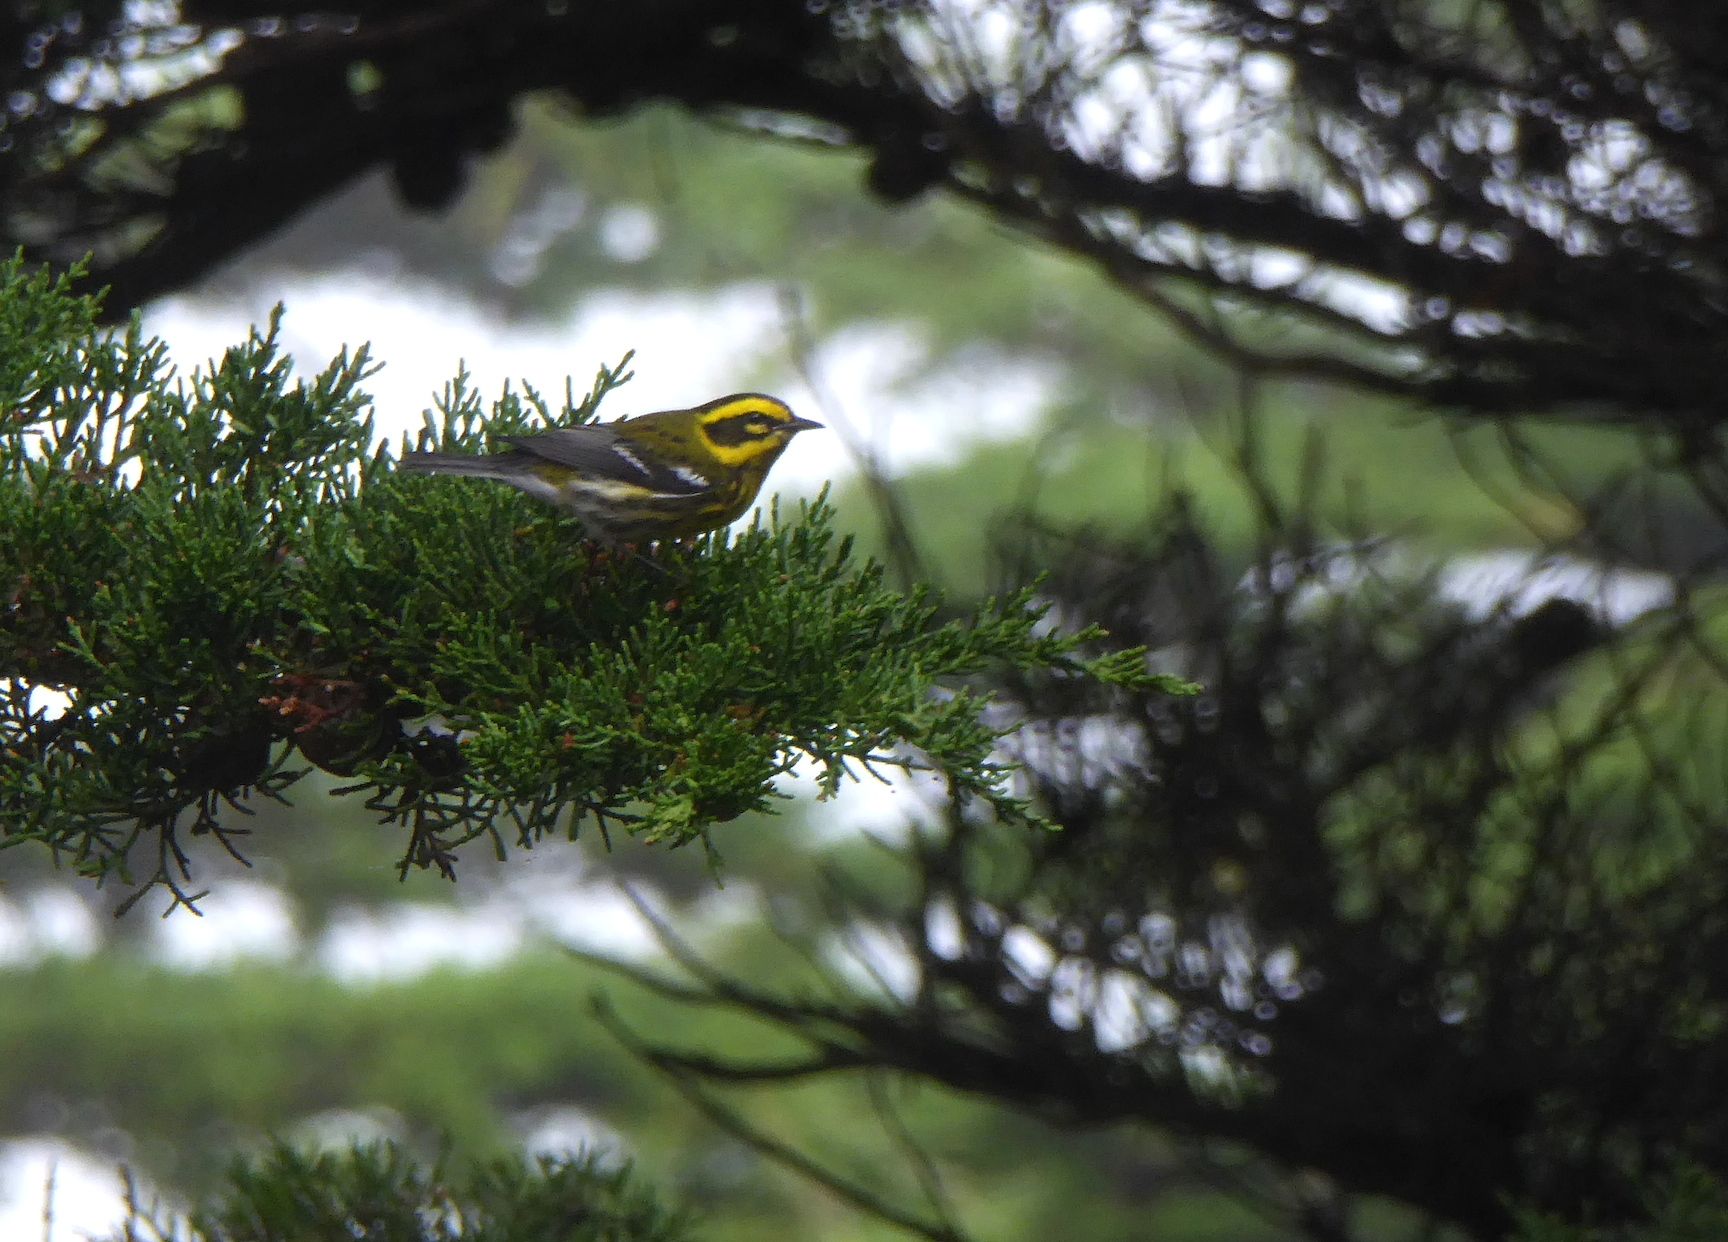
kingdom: Animalia
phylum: Chordata
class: Aves
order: Passeriformes
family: Parulidae
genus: Setophaga
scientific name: Setophaga townsendi
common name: Townsend's warbler
